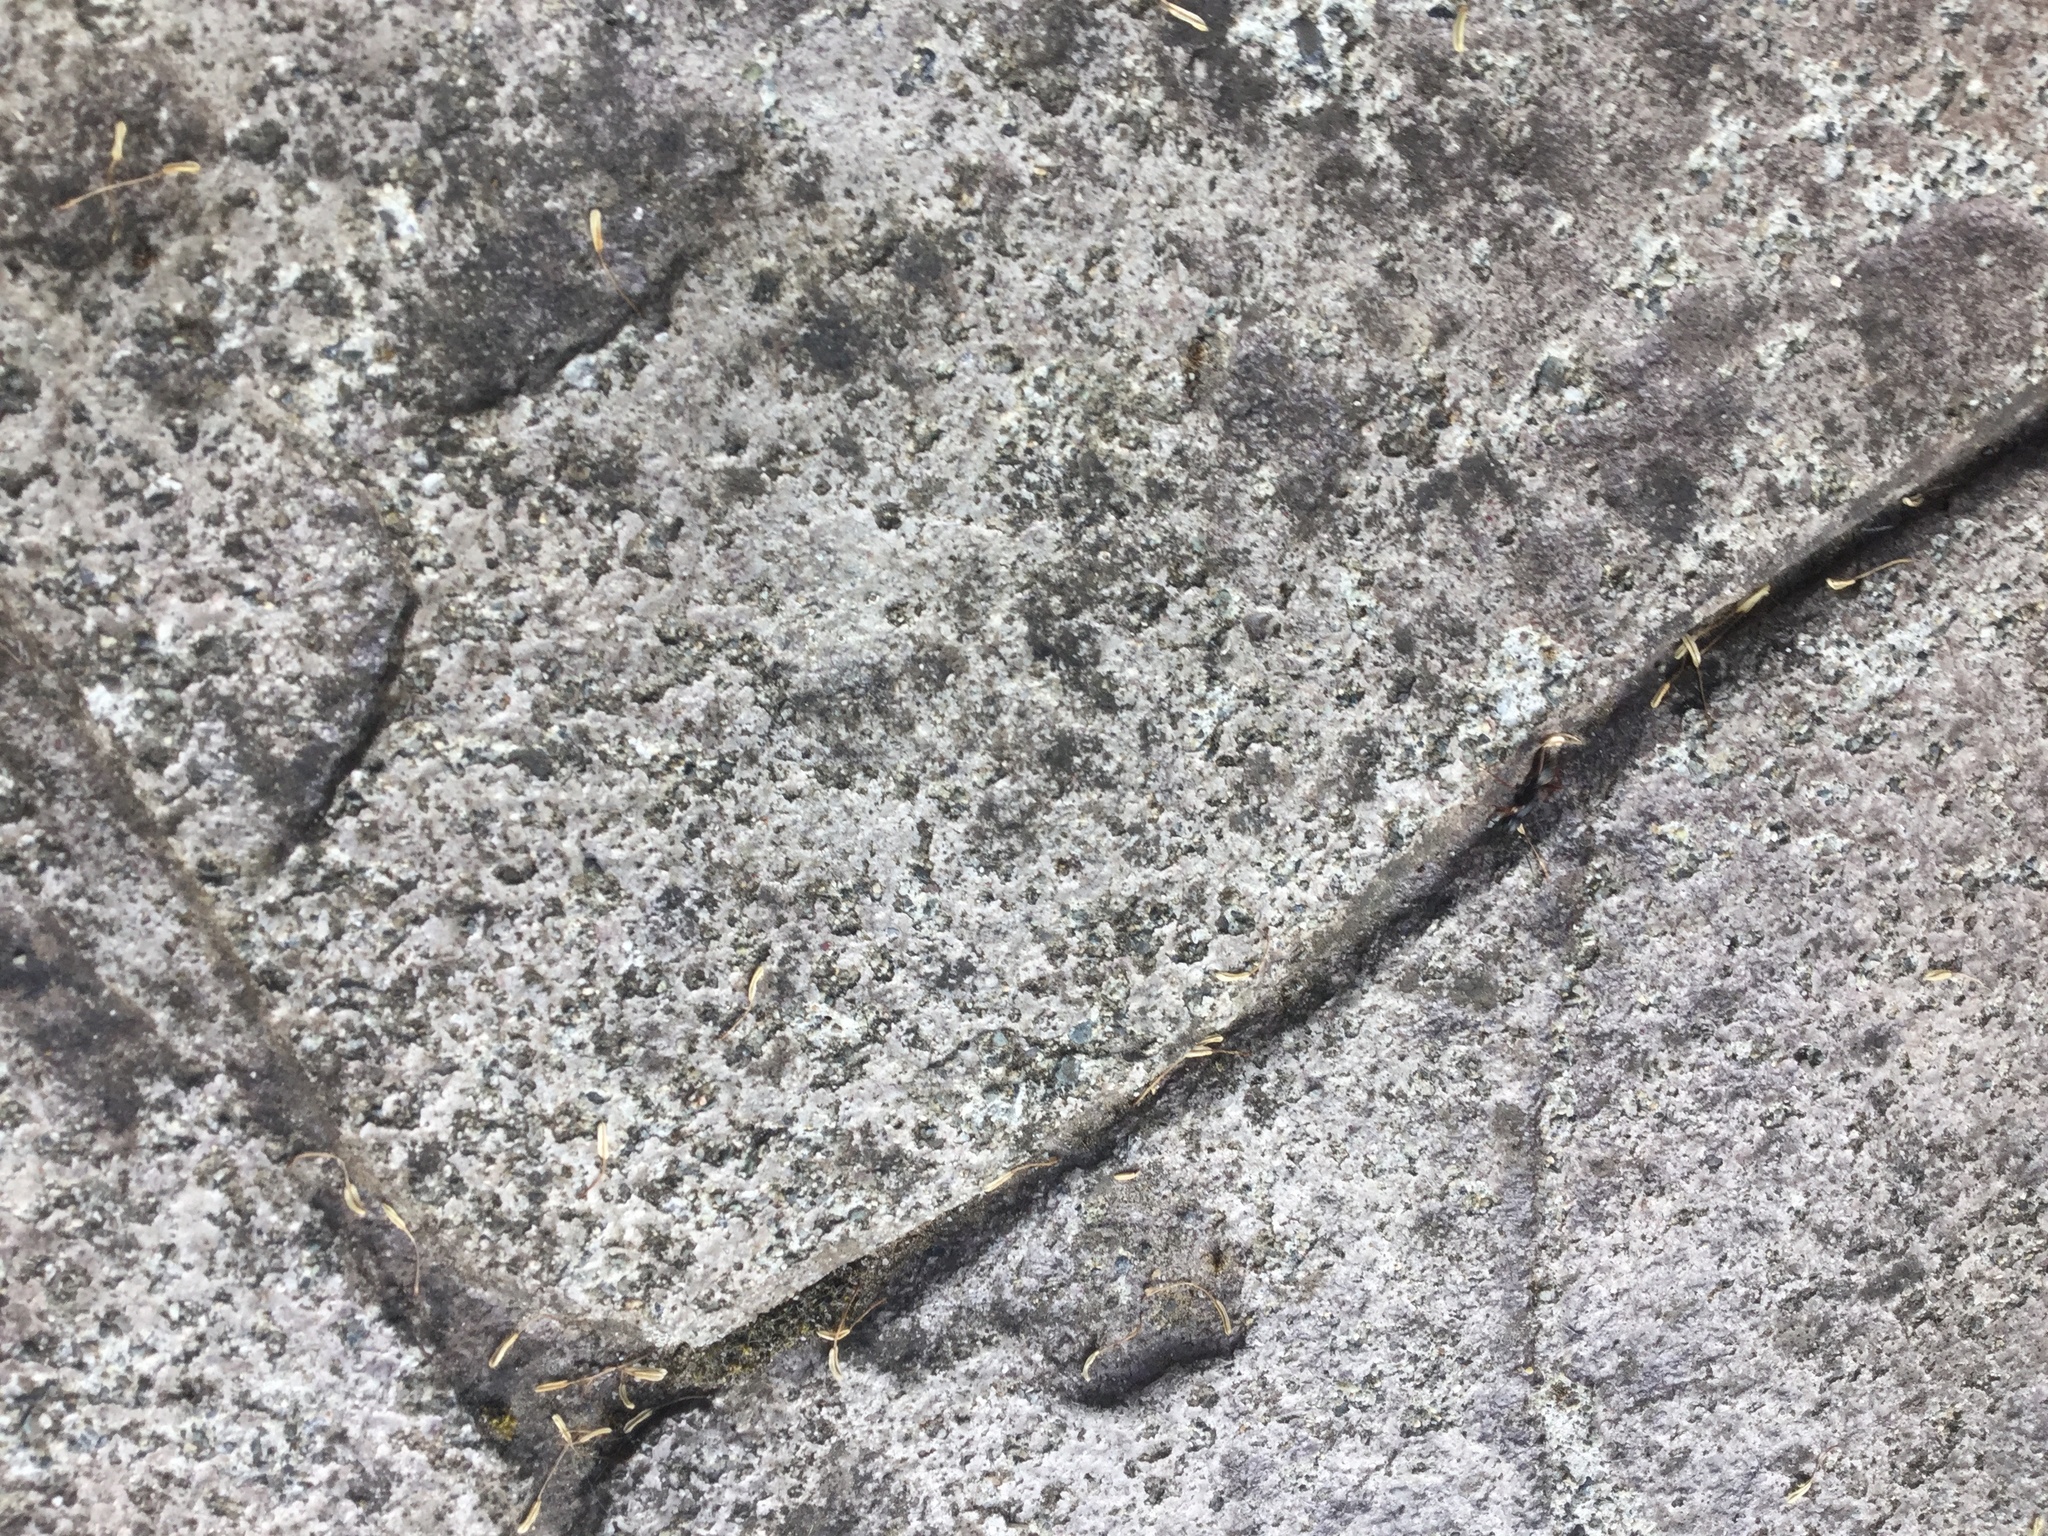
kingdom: Animalia
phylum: Arthropoda
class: Insecta
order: Hymenoptera
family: Formicidae
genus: Camponotus
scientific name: Camponotus modoc
